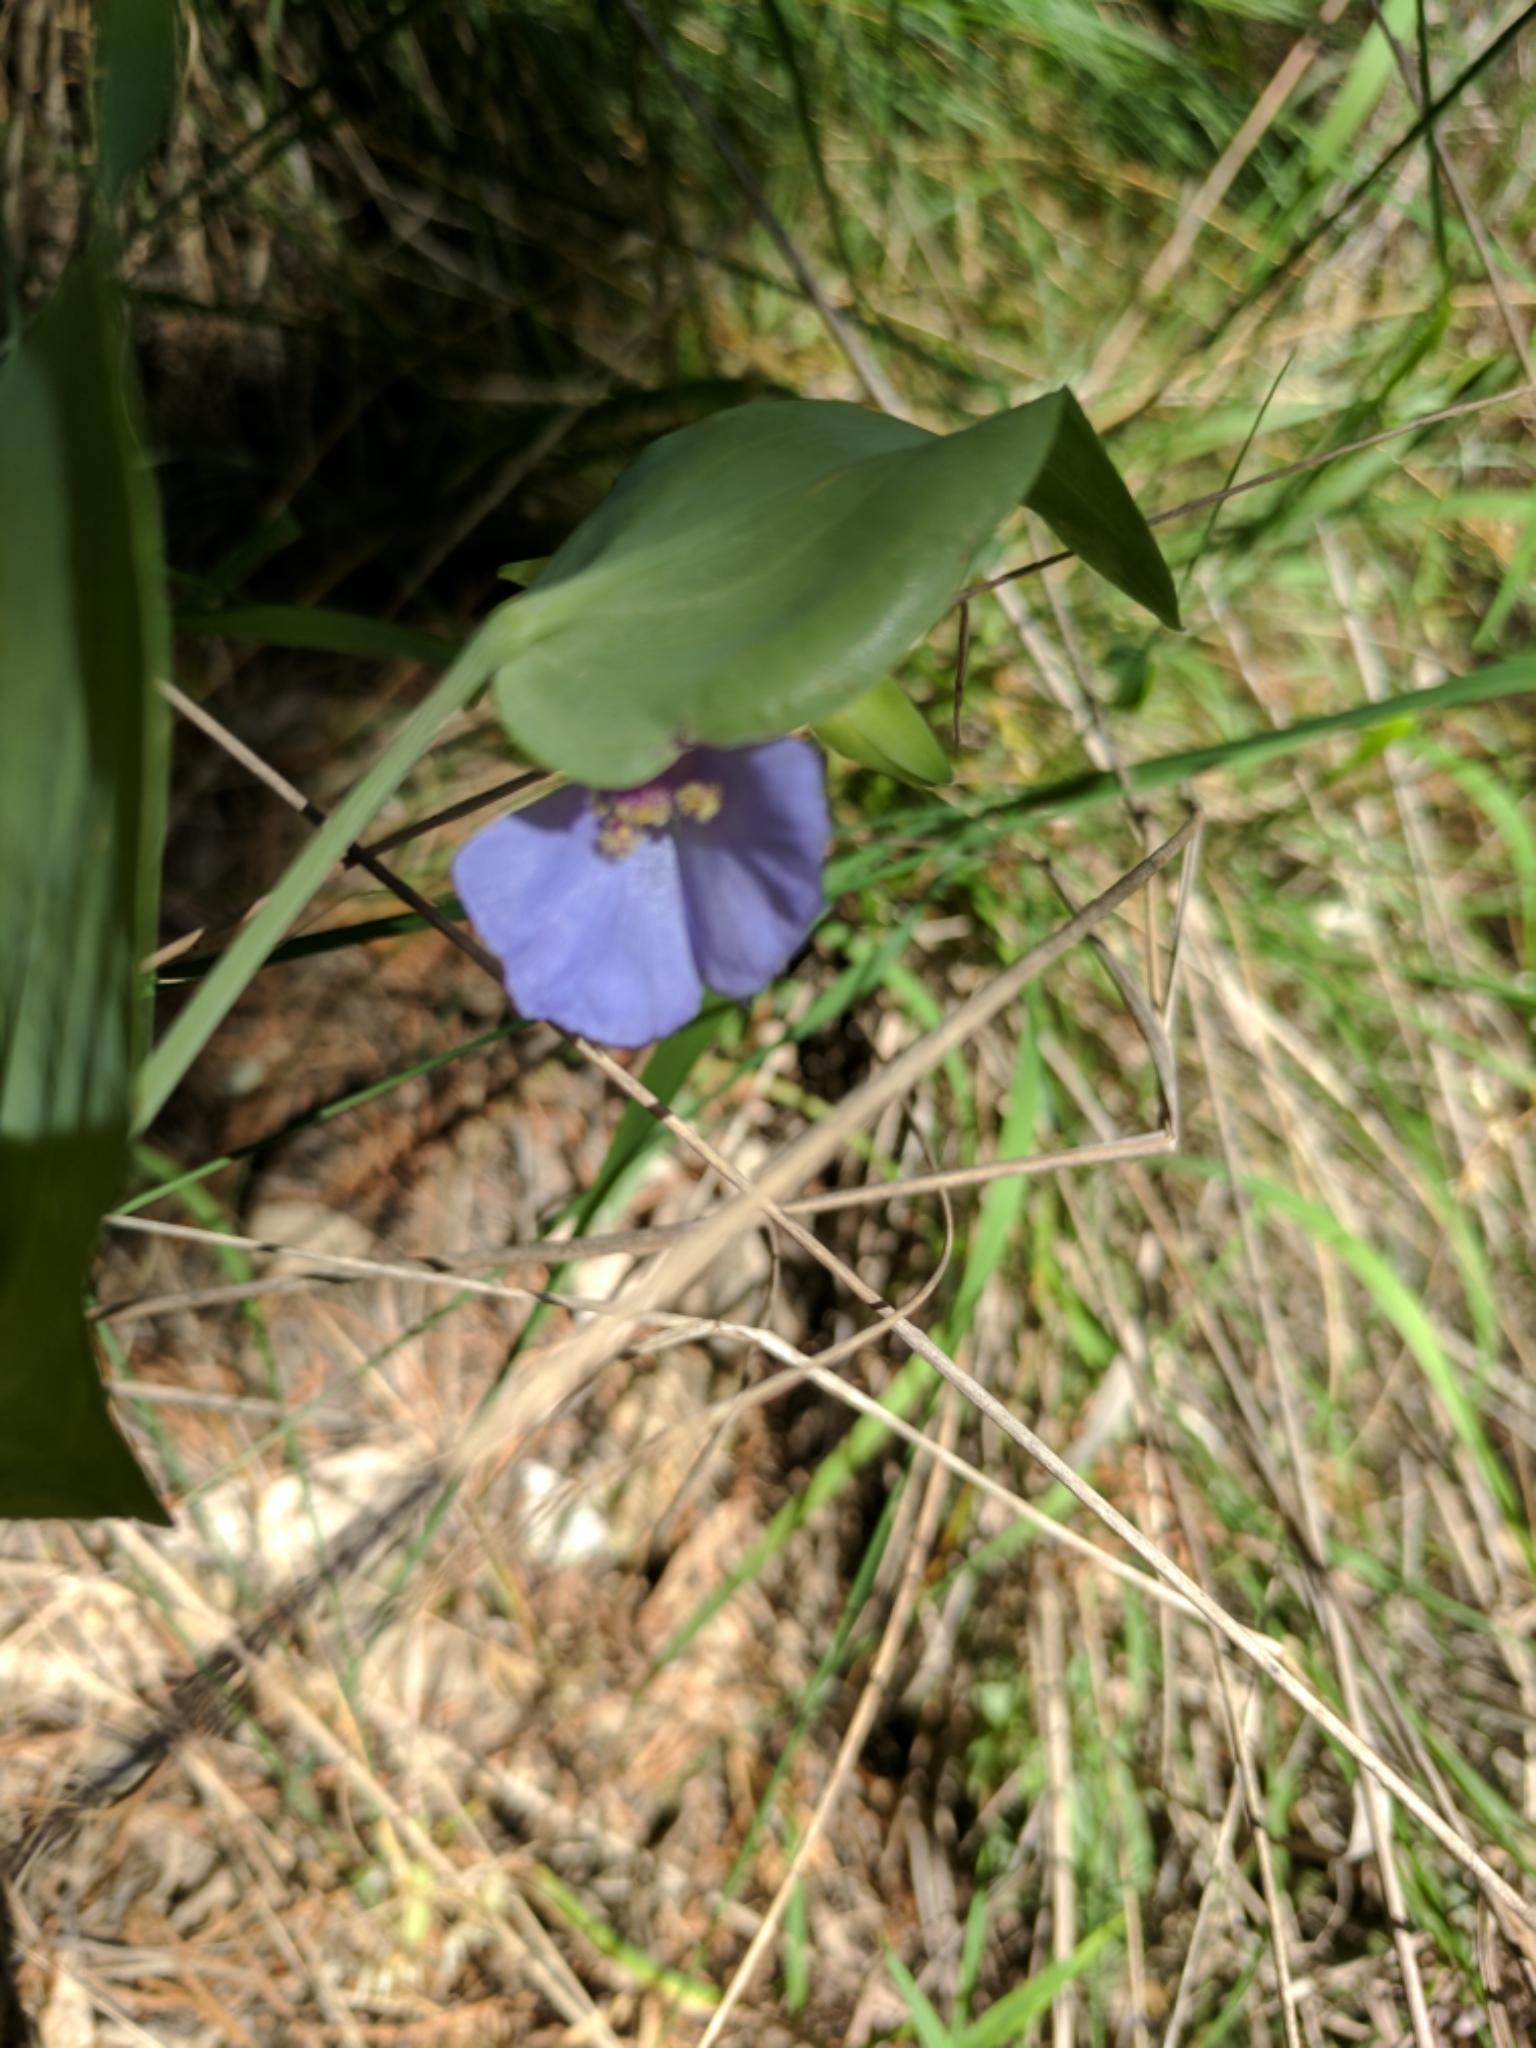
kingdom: Plantae
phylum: Tracheophyta
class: Liliopsida
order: Commelinales
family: Commelinaceae
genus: Tinantia
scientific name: Tinantia anomala
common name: False dayflower
